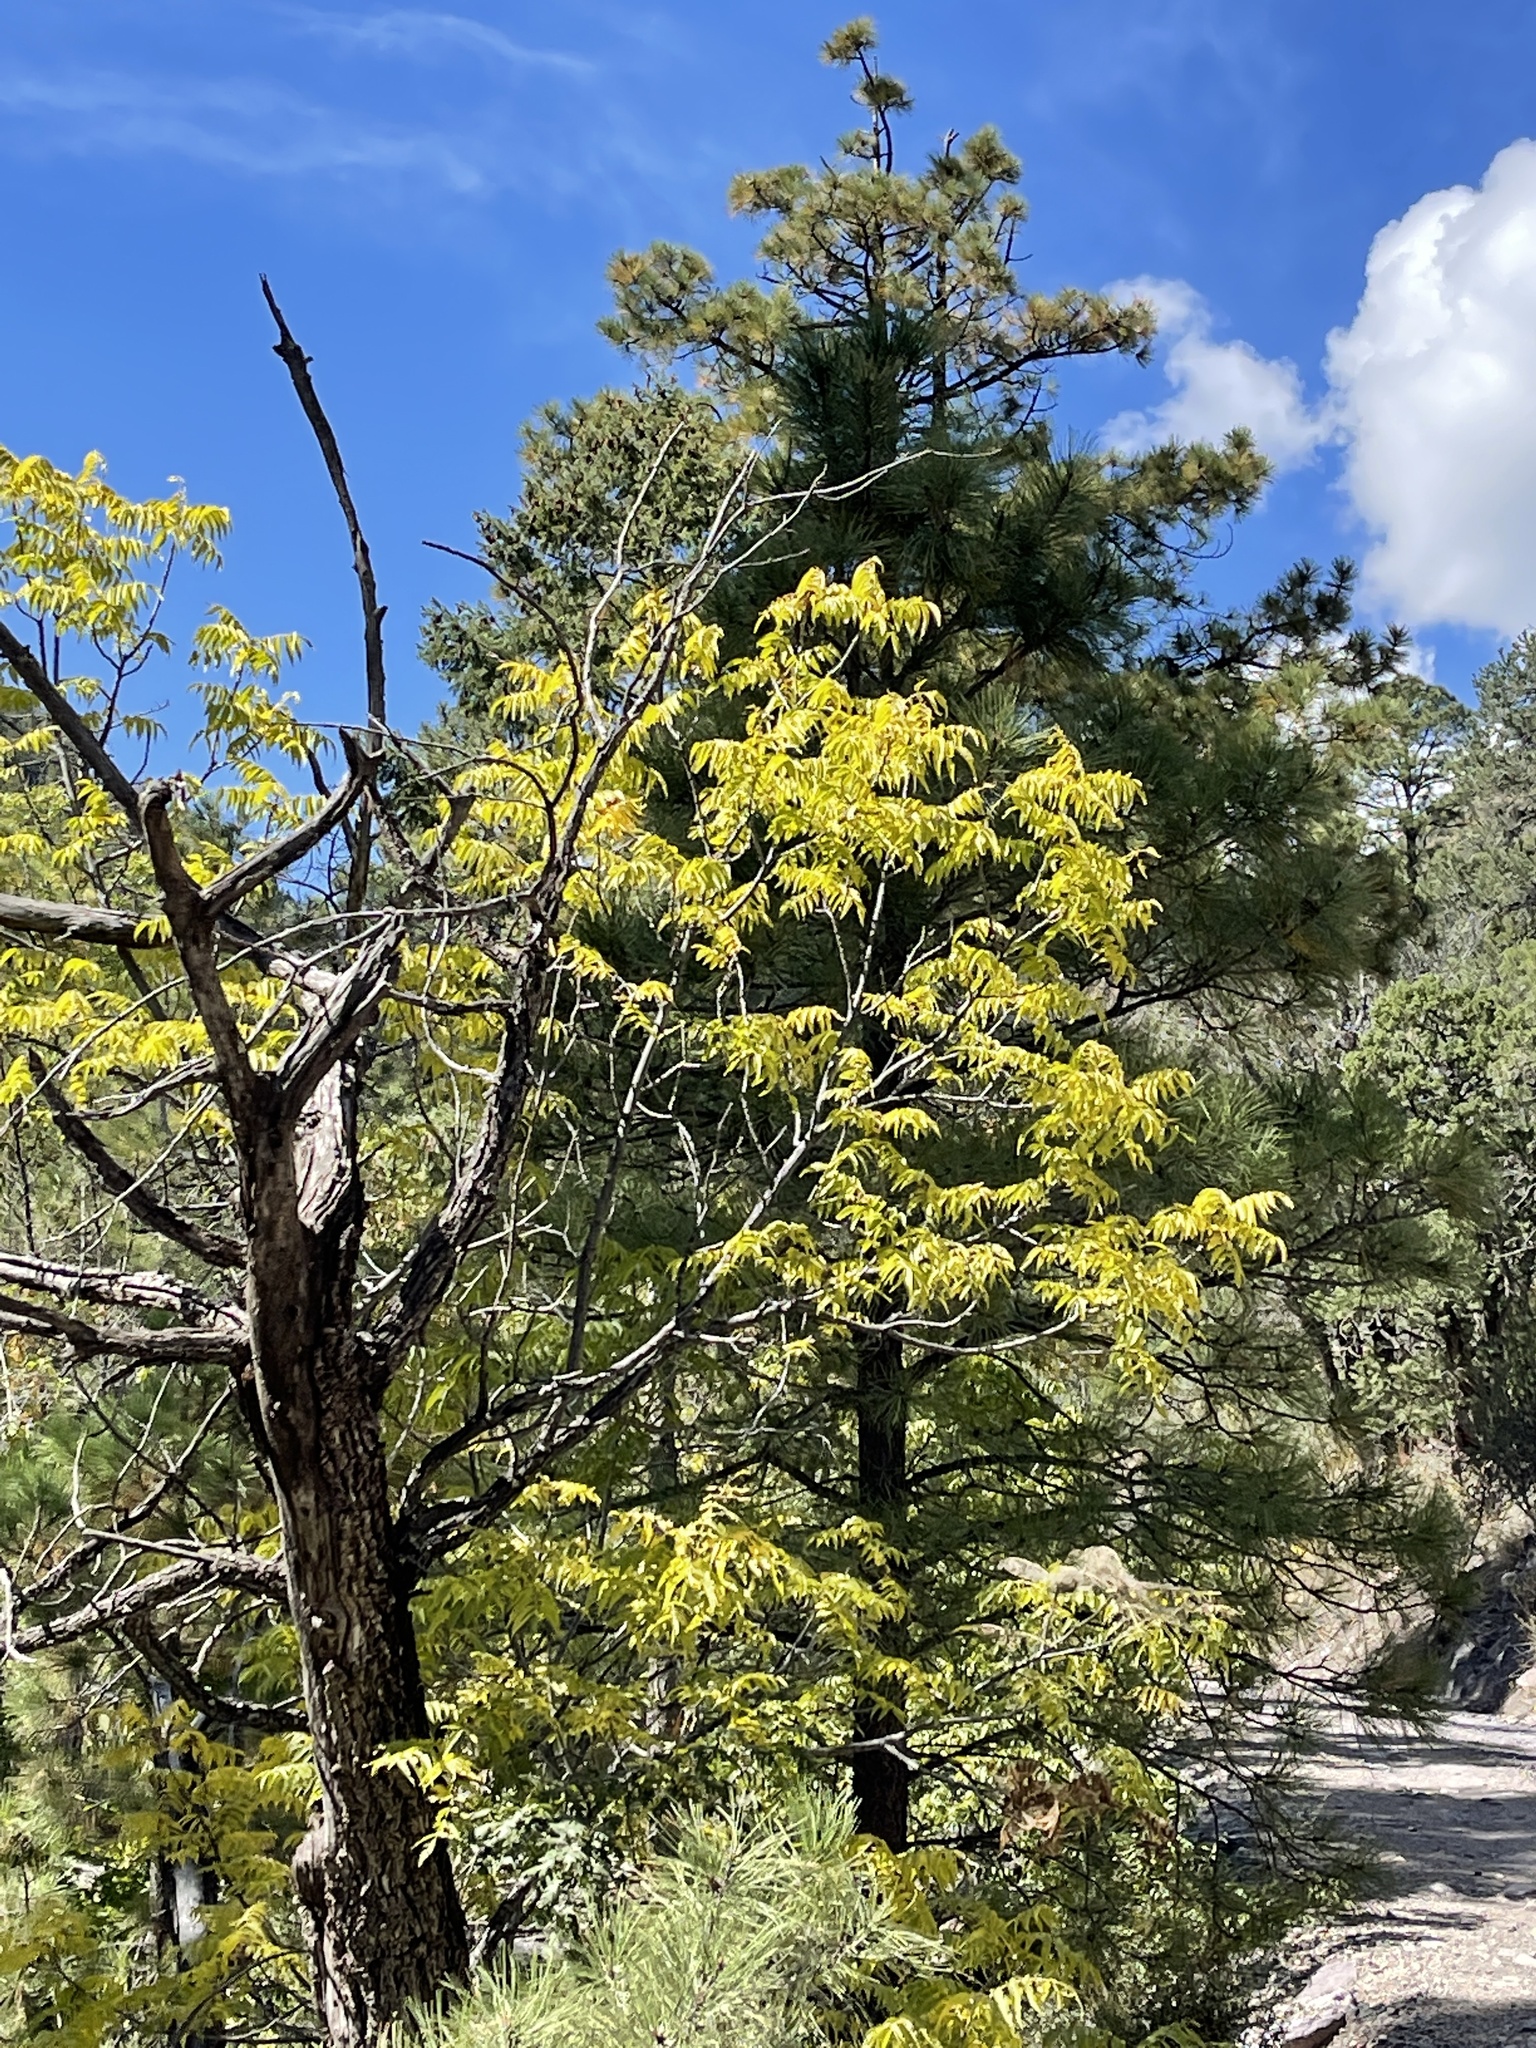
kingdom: Plantae
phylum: Tracheophyta
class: Magnoliopsida
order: Fagales
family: Juglandaceae
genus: Juglans
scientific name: Juglans major
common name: Arizona walnut
